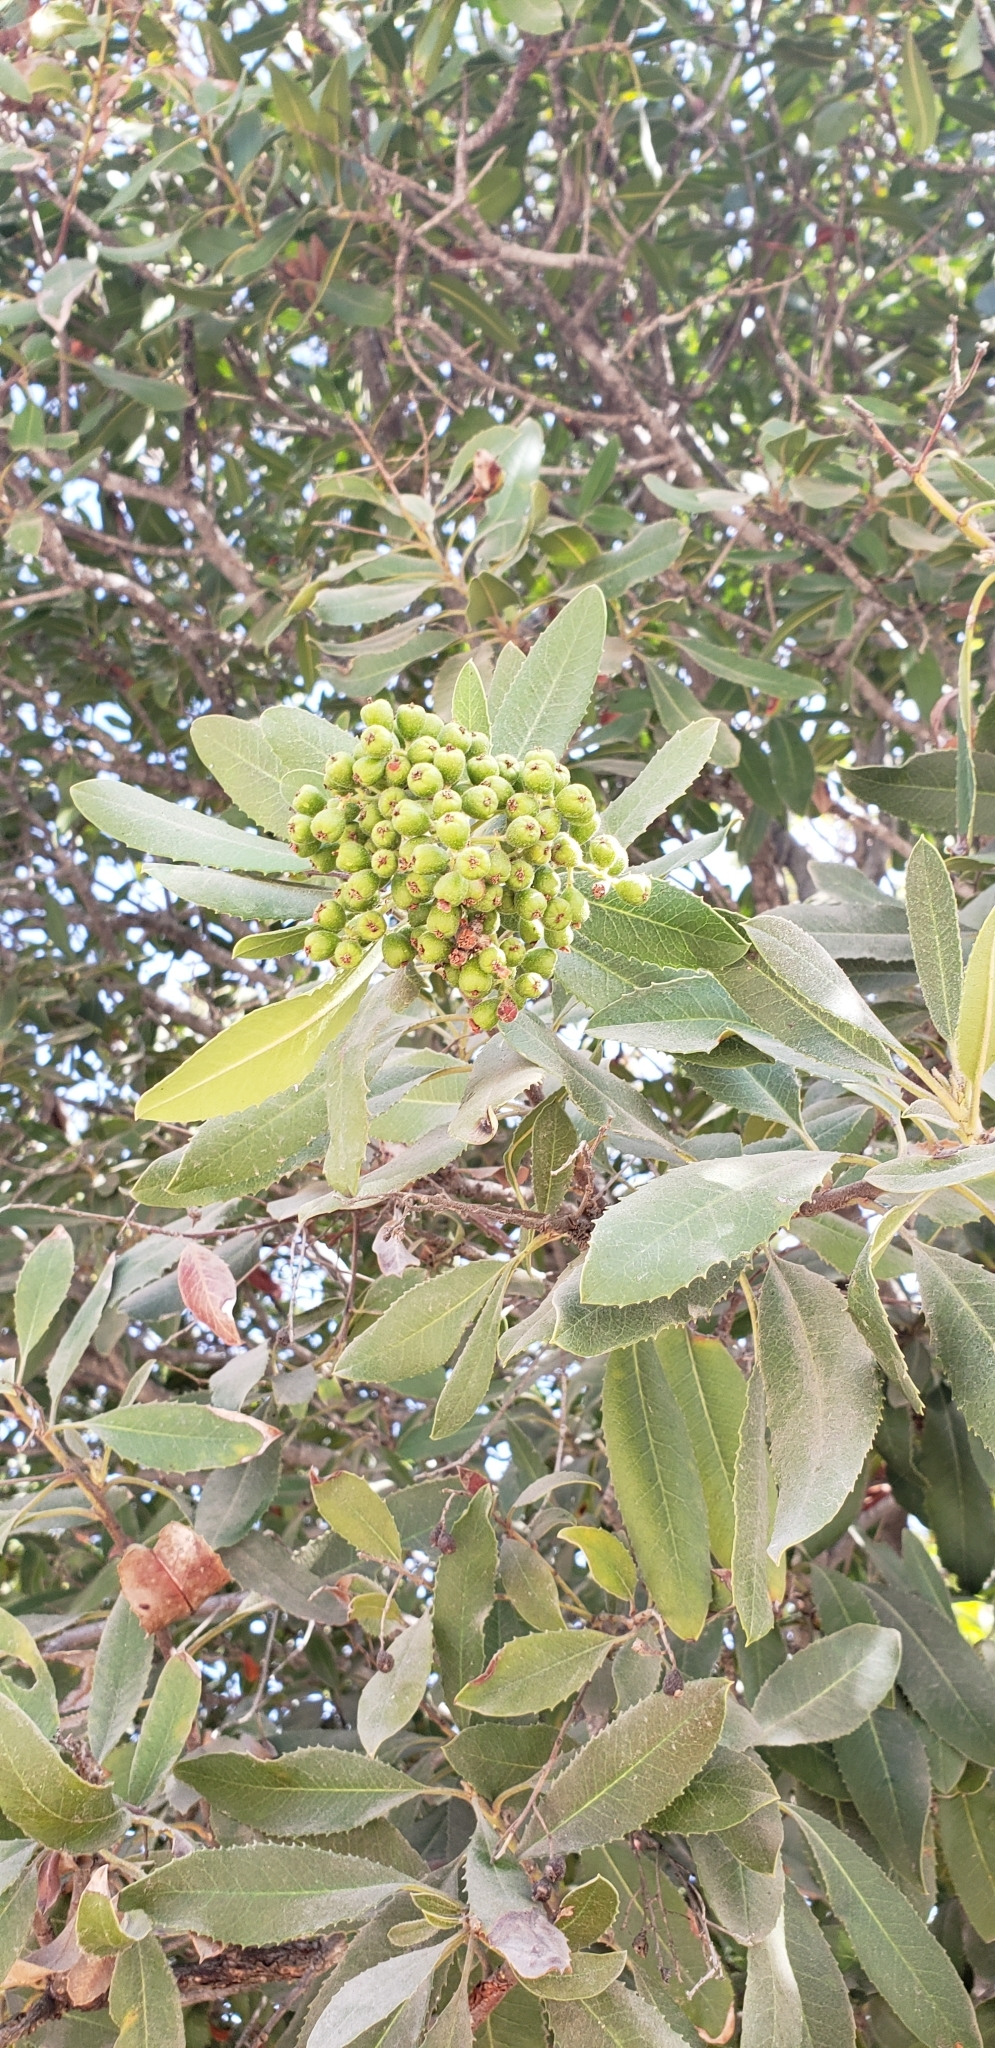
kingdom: Plantae
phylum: Tracheophyta
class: Magnoliopsida
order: Rosales
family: Rosaceae
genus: Heteromeles
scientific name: Heteromeles arbutifolia
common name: California-holly
